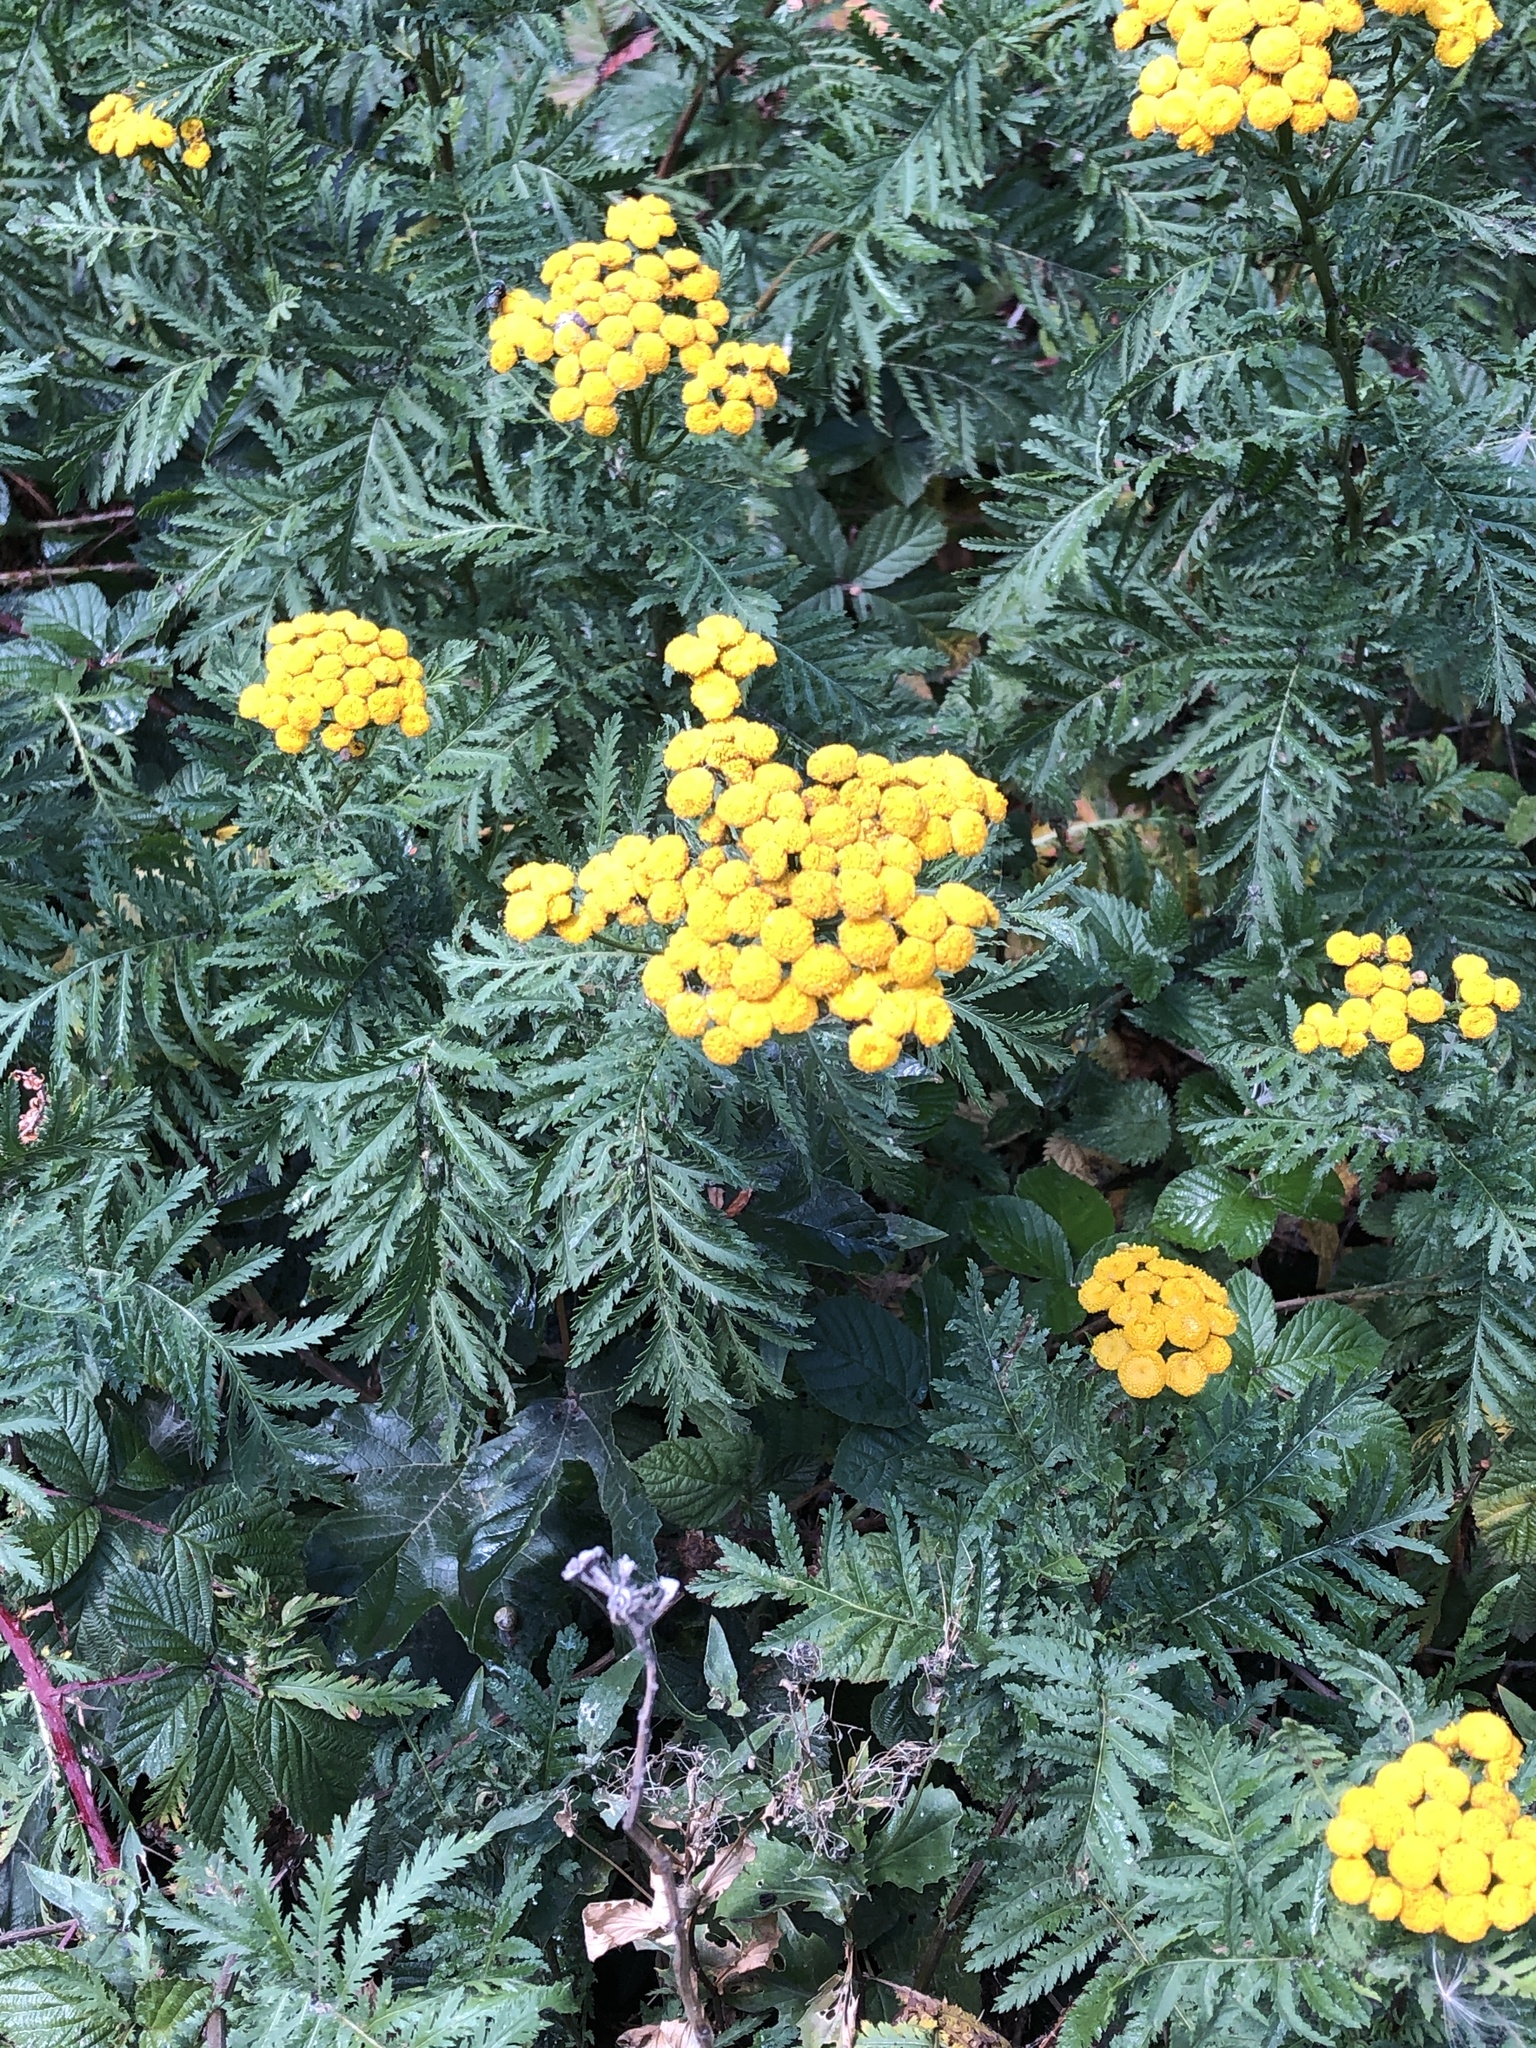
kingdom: Plantae
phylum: Tracheophyta
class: Magnoliopsida
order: Asterales
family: Asteraceae
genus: Tanacetum
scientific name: Tanacetum vulgare
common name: Common tansy
